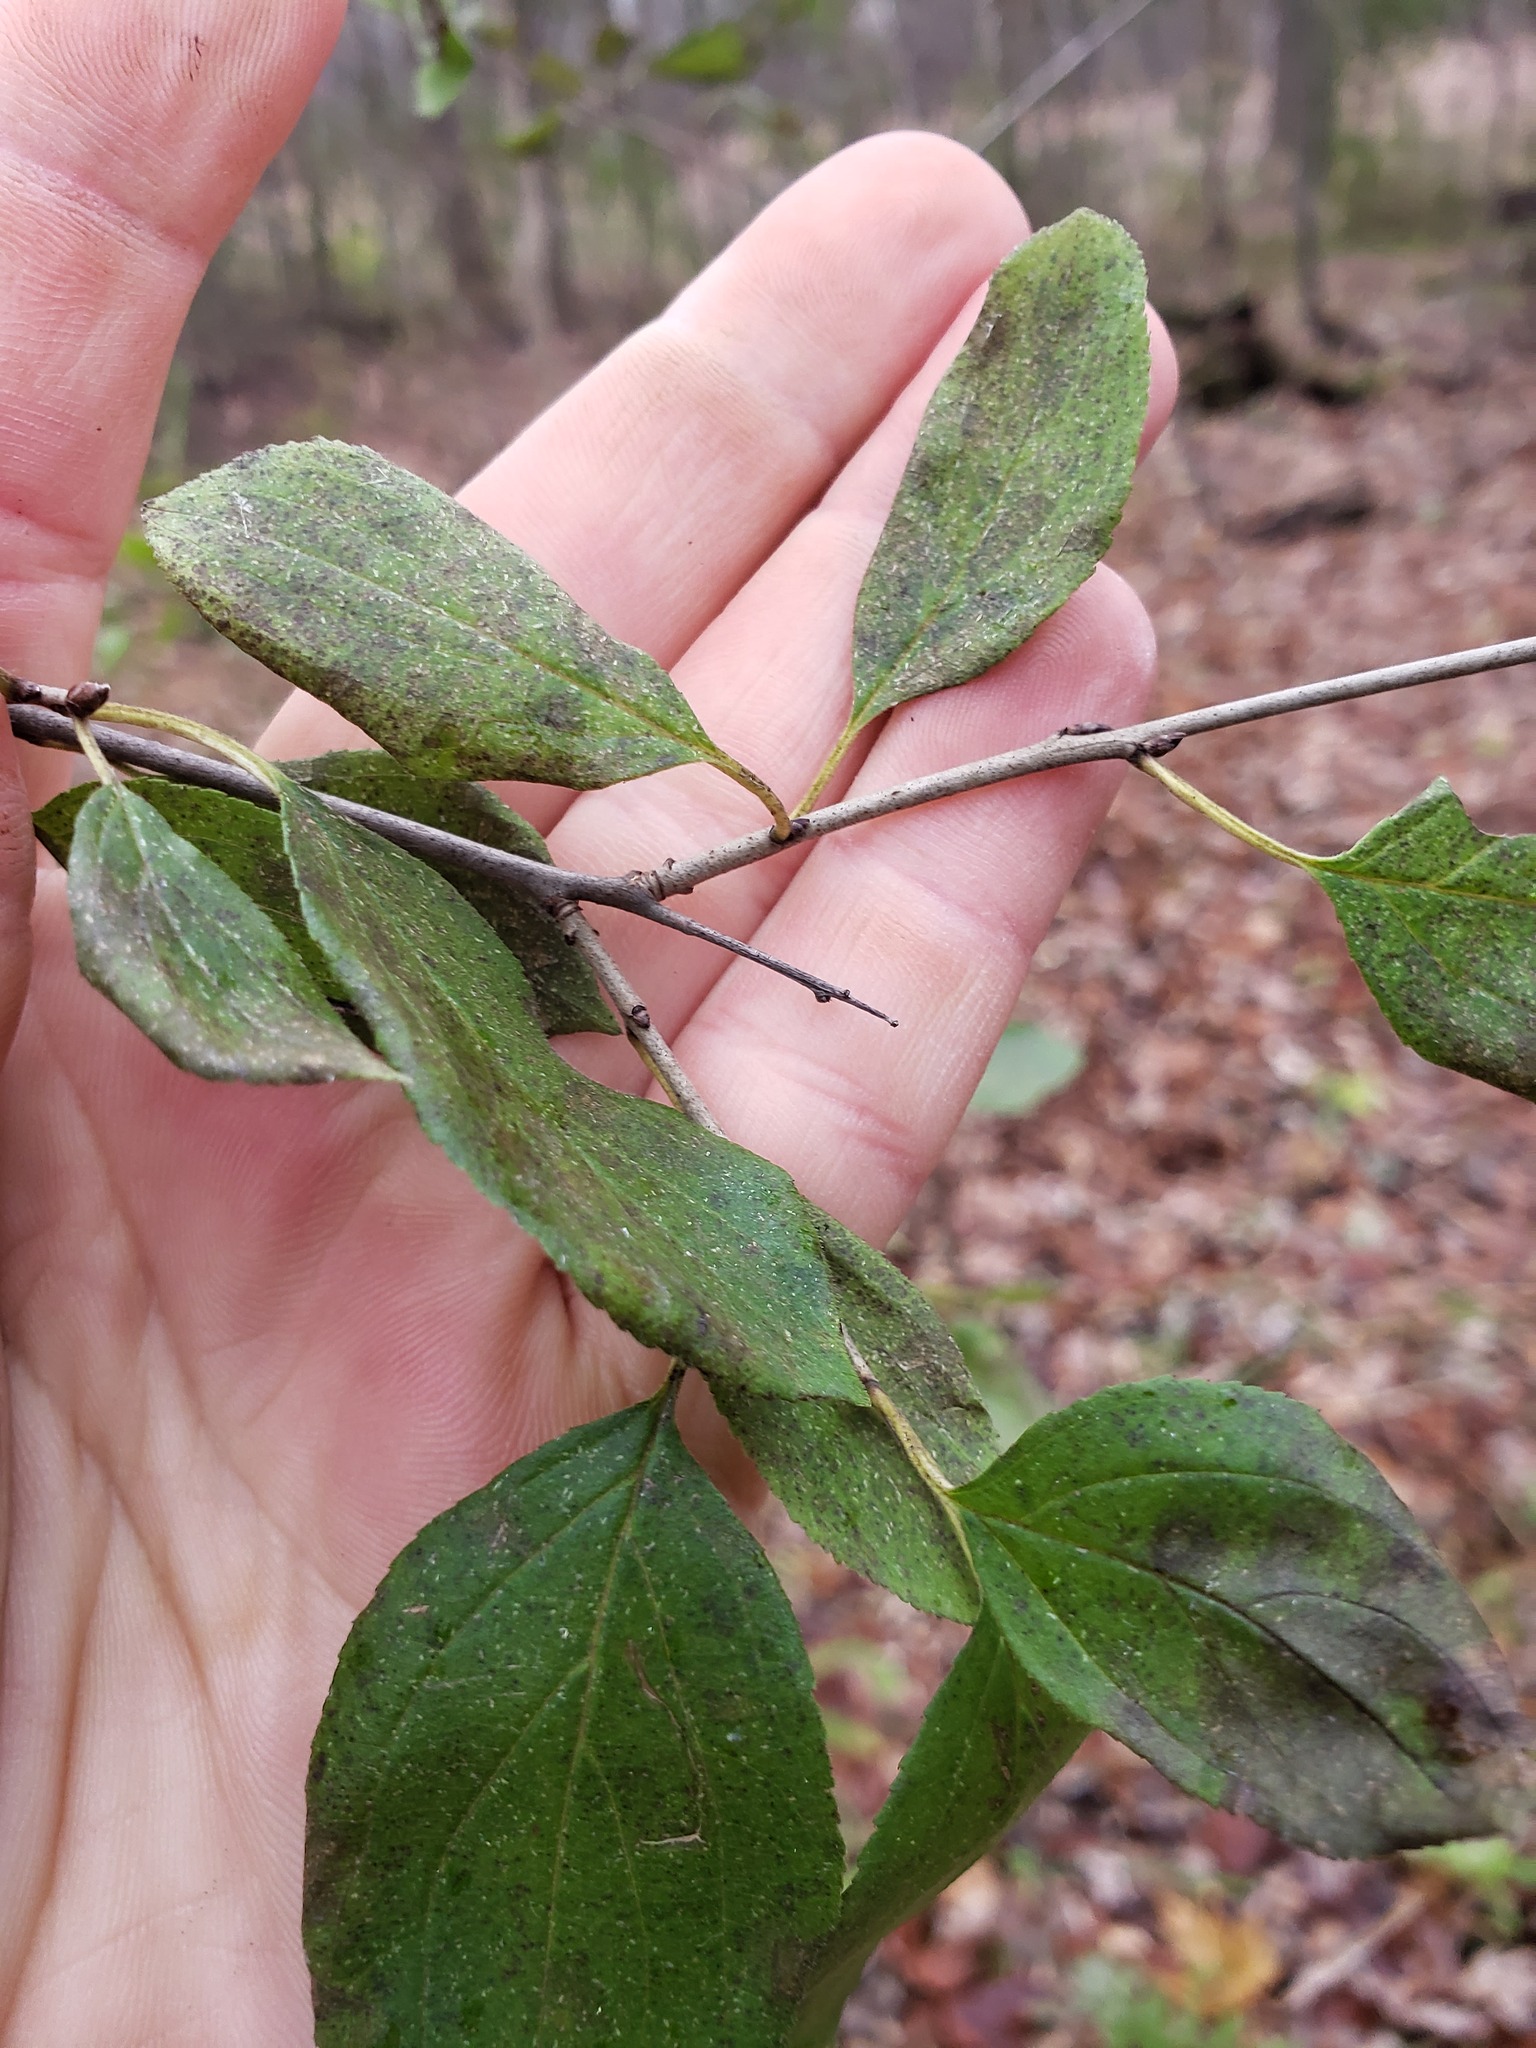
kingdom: Plantae
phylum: Tracheophyta
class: Magnoliopsida
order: Rosales
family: Rhamnaceae
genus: Rhamnus
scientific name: Rhamnus cathartica
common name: Common buckthorn
